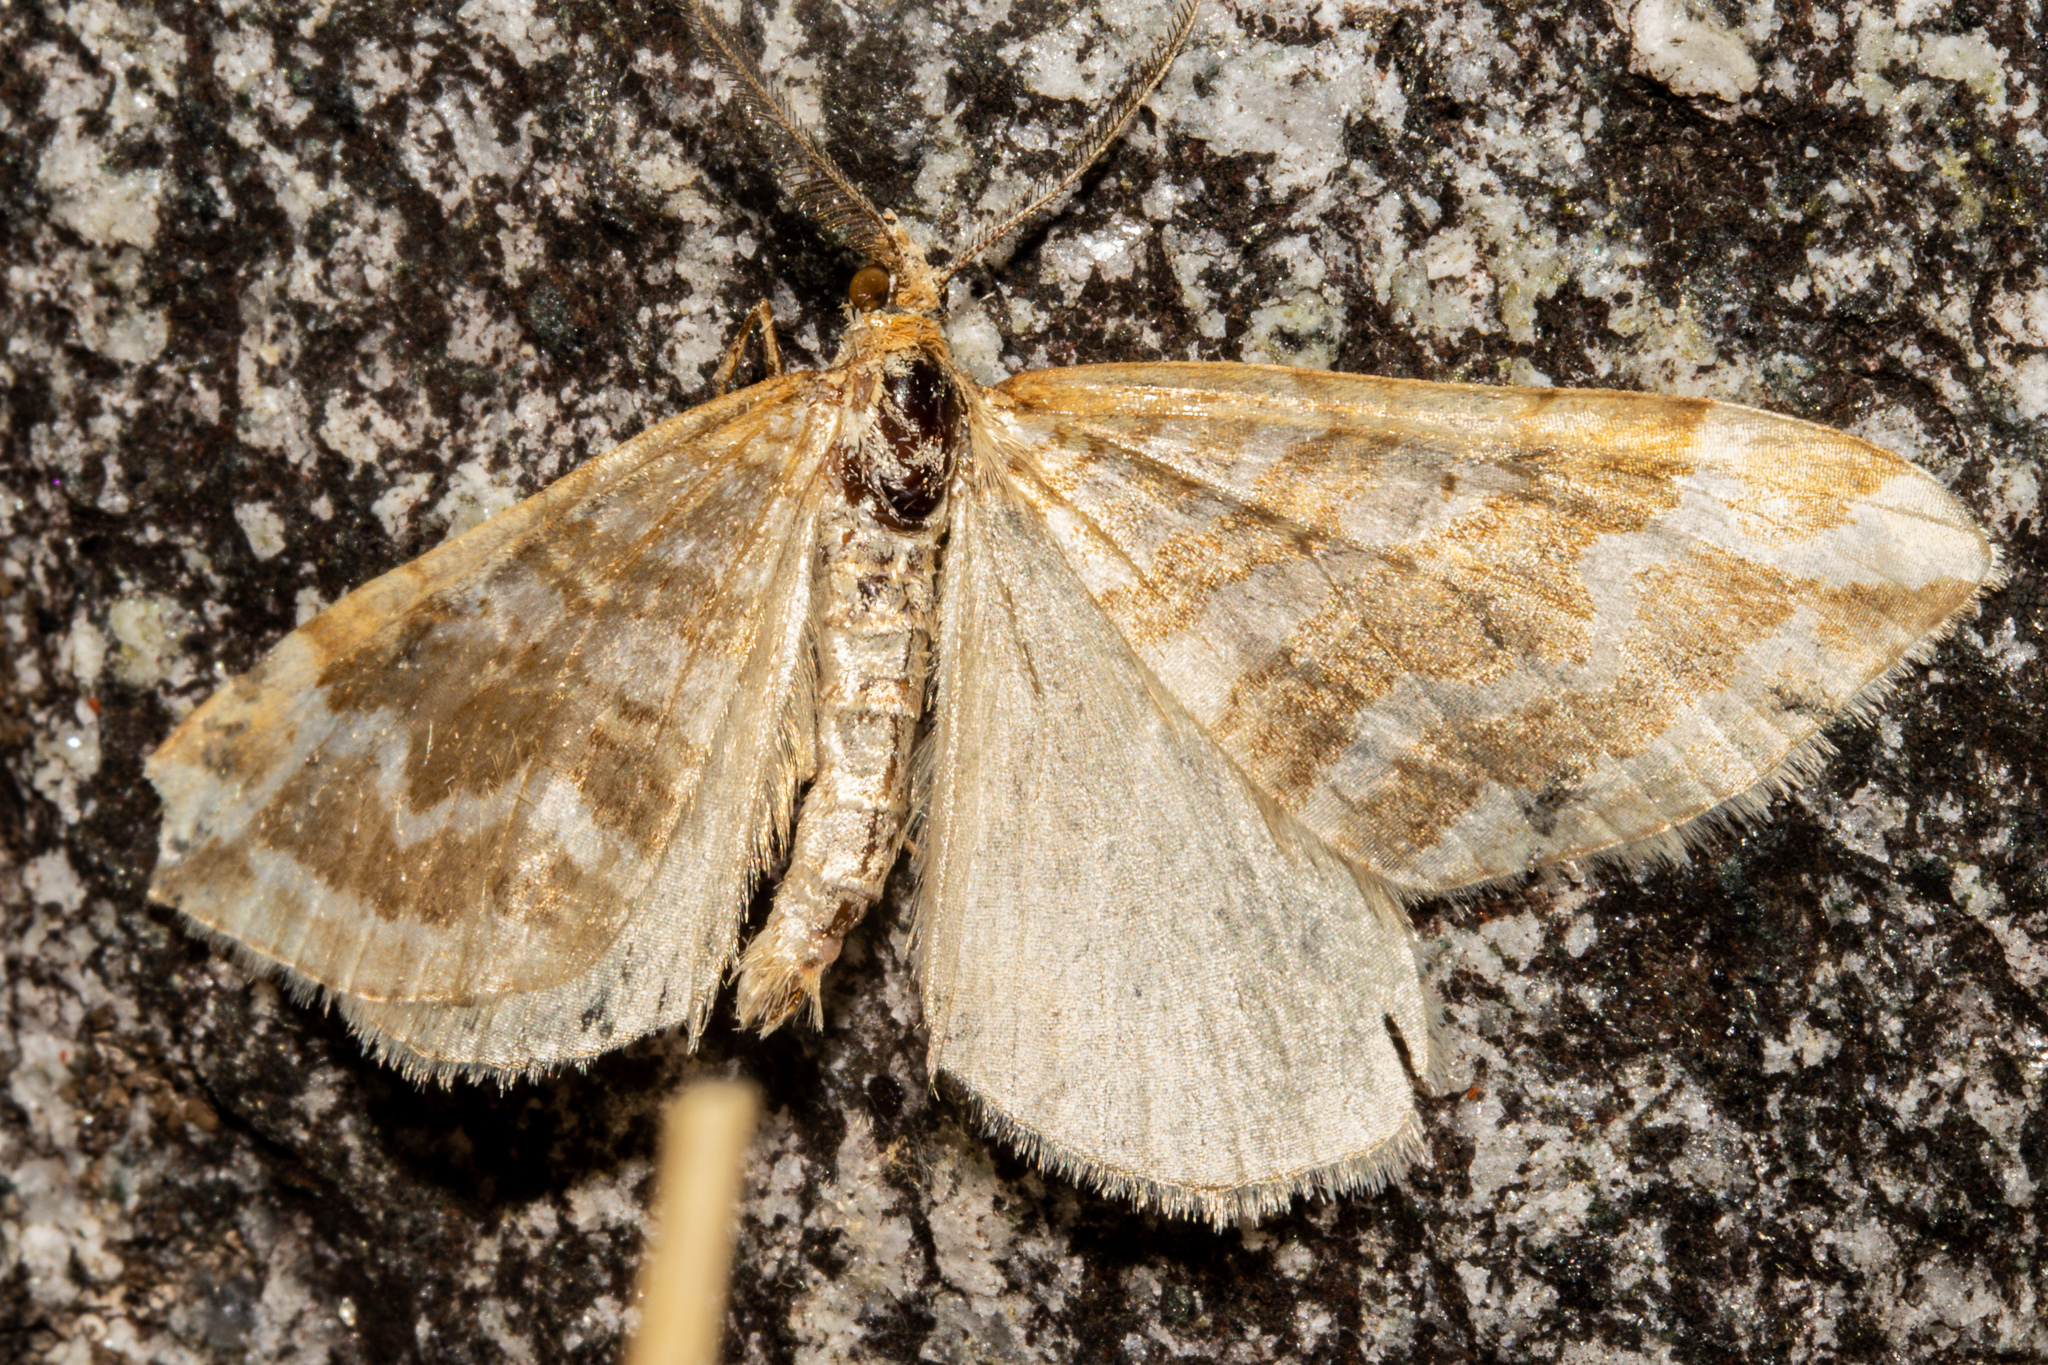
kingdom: Animalia
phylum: Arthropoda
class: Insecta
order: Lepidoptera
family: Geometridae
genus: Asaphodes
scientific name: Asaphodes cataphracta
